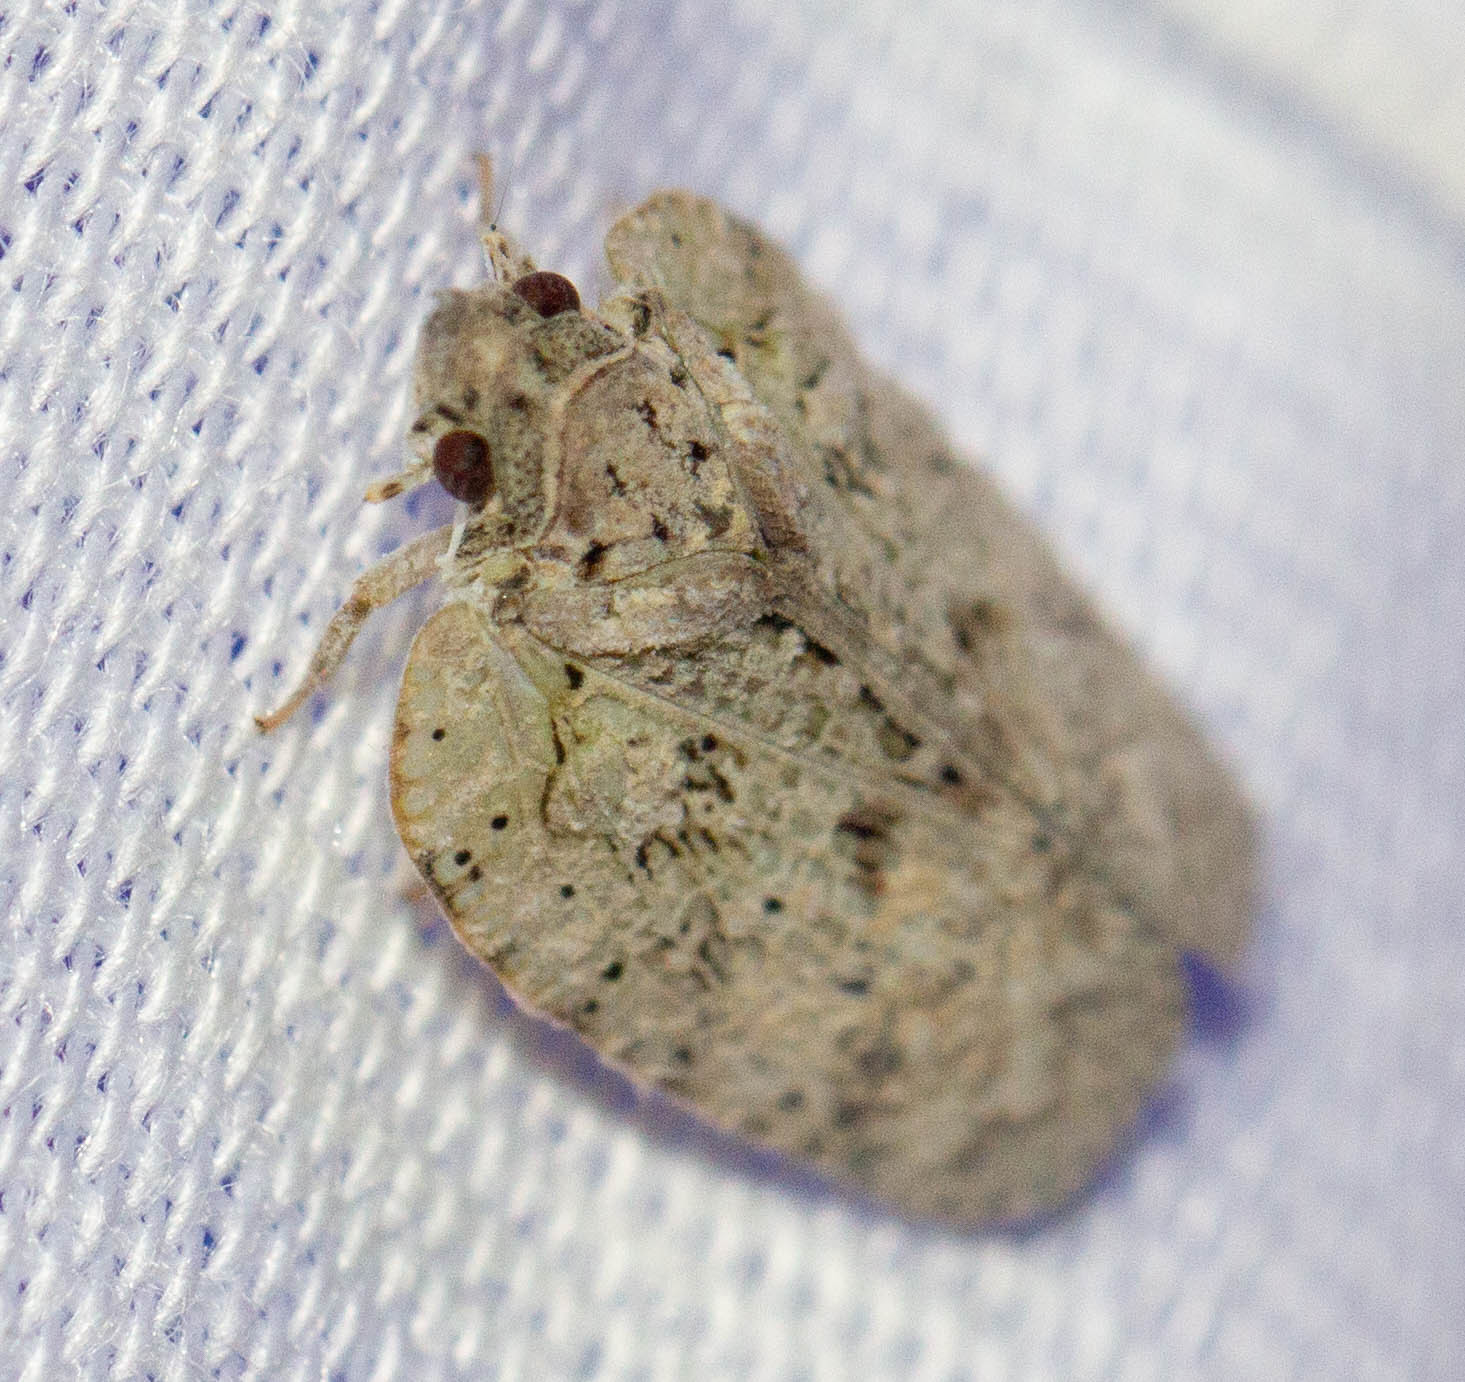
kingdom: Animalia
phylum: Arthropoda
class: Insecta
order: Hemiptera
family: Flatidae
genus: Flatoidinus
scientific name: Flatoidinus punctatus
